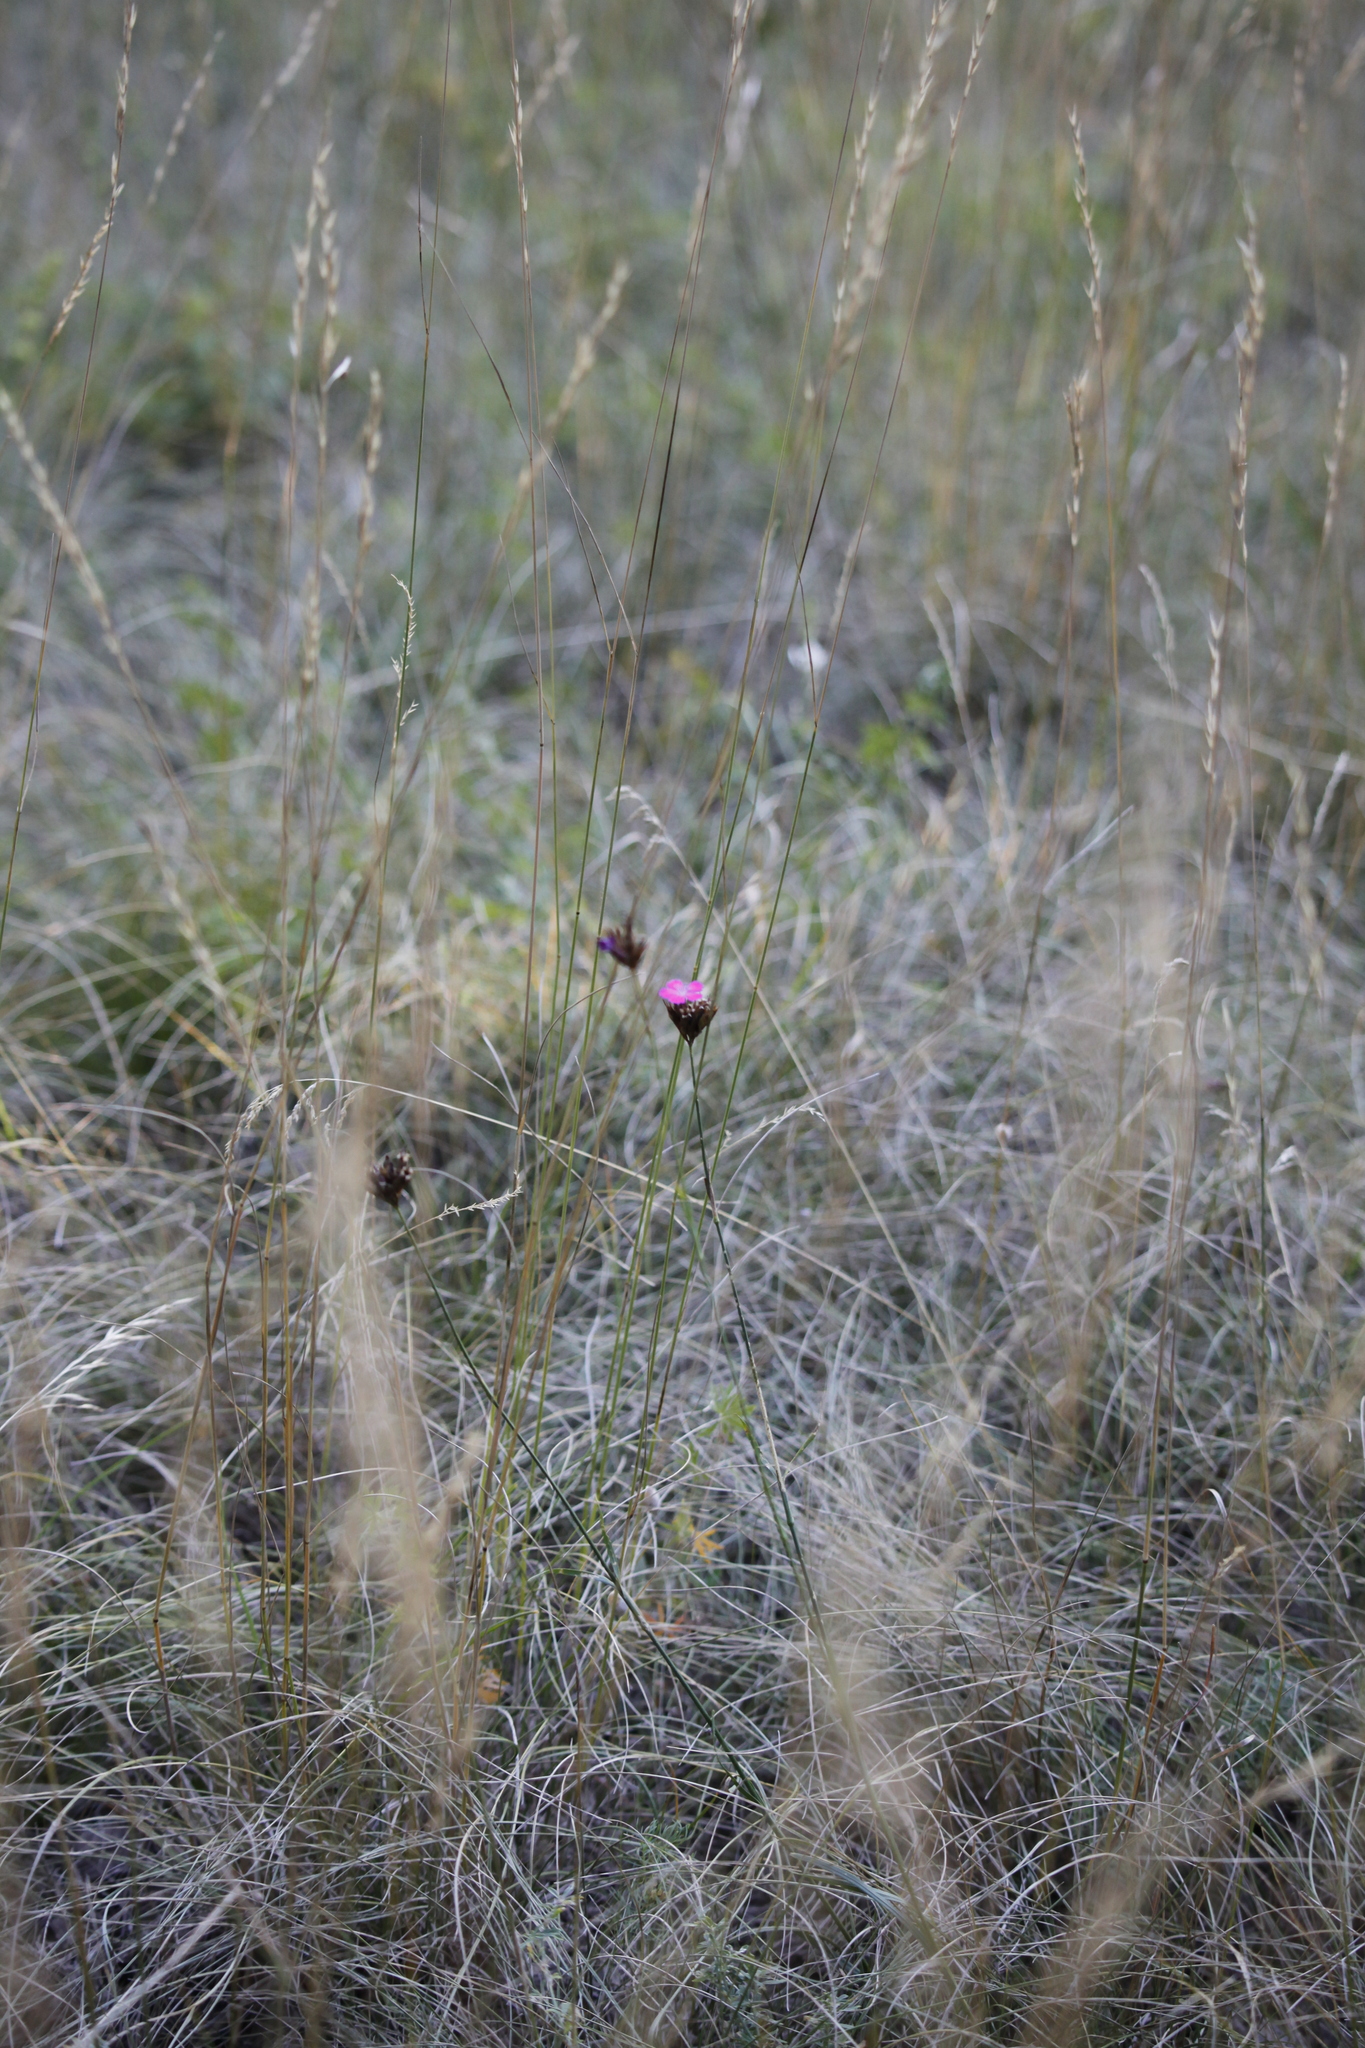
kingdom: Plantae
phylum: Tracheophyta
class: Magnoliopsida
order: Caryophyllales
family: Caryophyllaceae
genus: Dianthus
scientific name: Dianthus carthusianorum
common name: Carthusian pink
